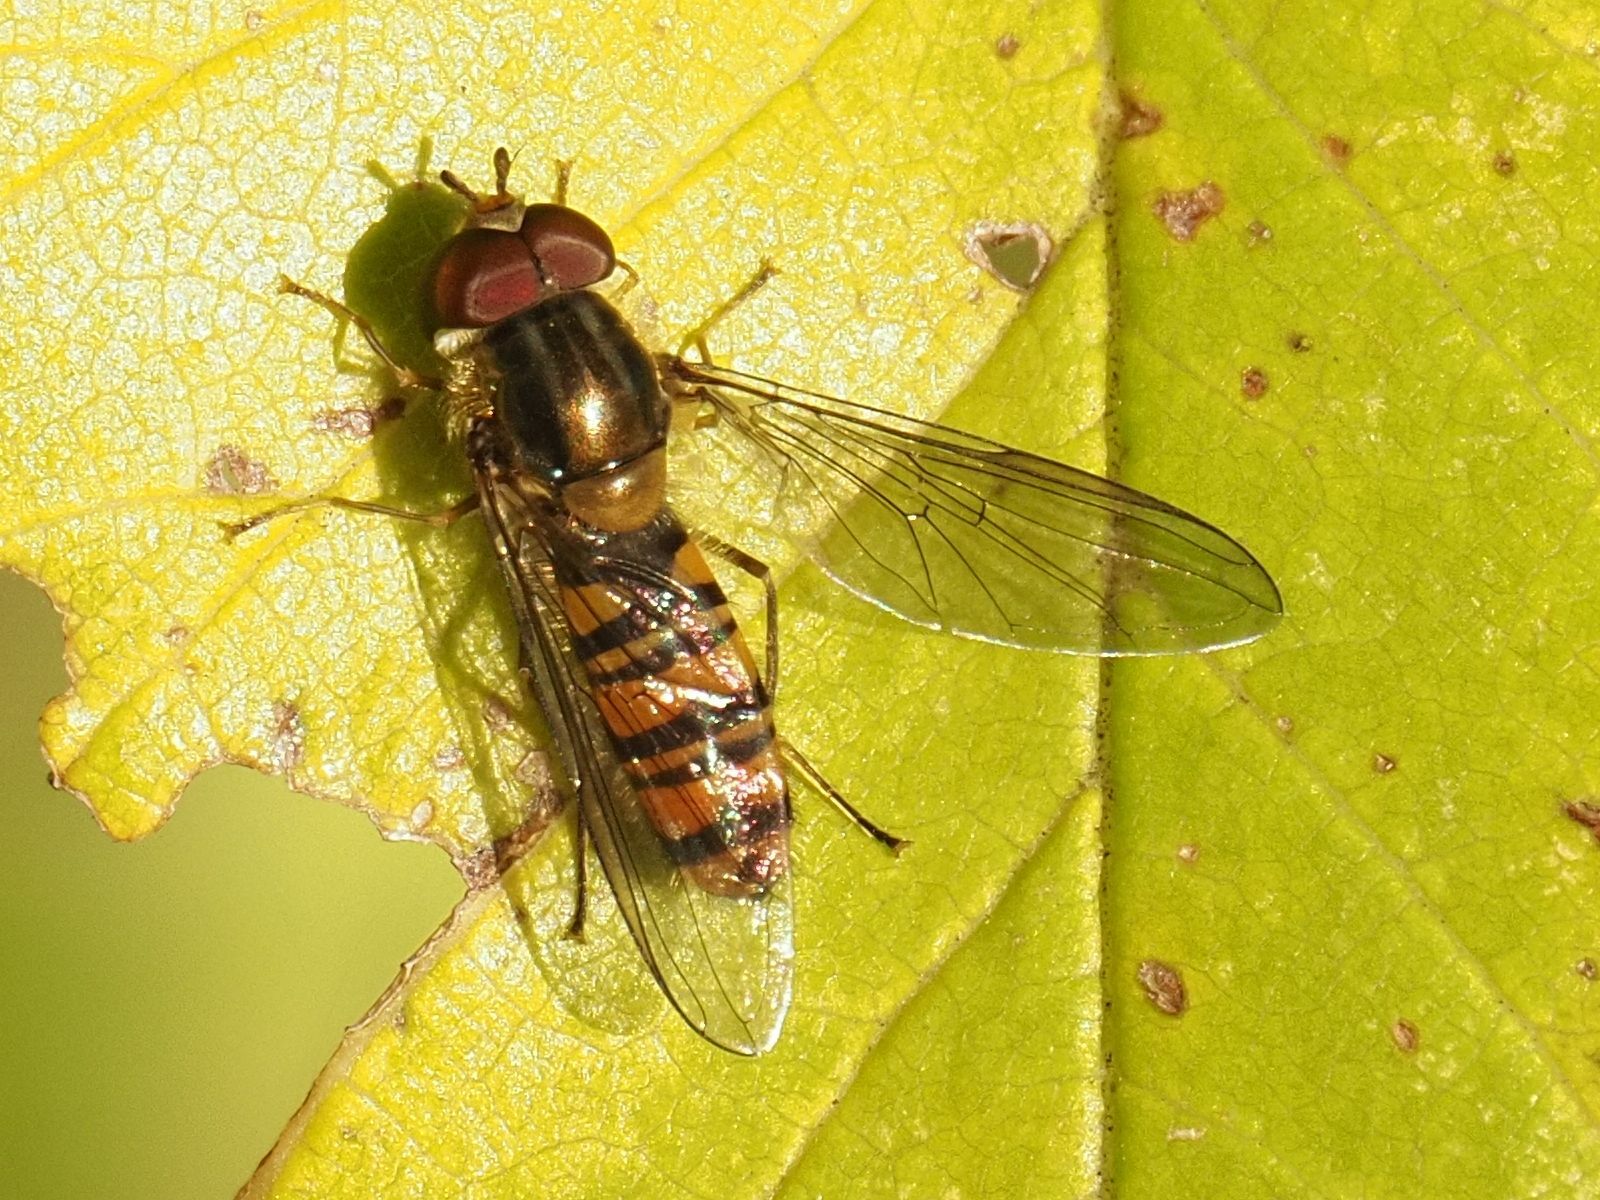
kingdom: Animalia
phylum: Arthropoda
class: Insecta
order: Diptera
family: Syrphidae
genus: Episyrphus
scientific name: Episyrphus balteatus
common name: Marmalade hoverfly
